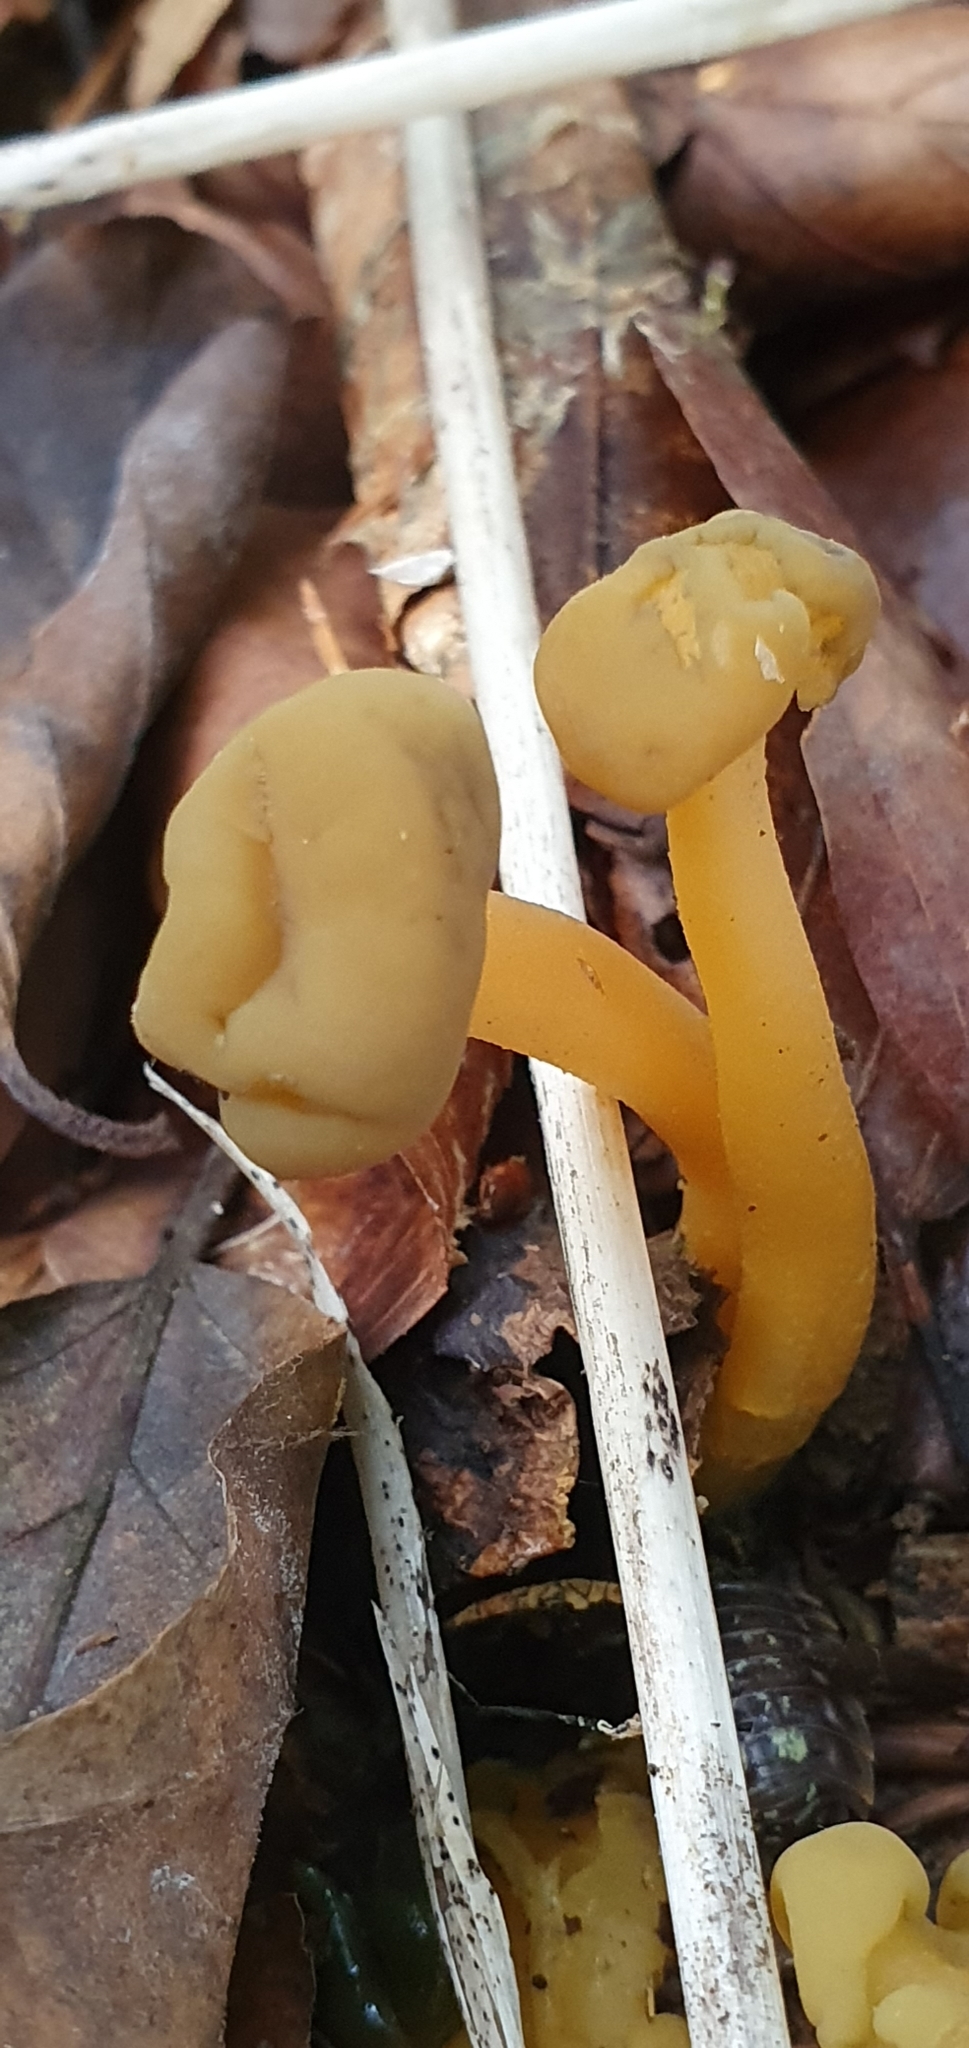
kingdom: Fungi
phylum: Ascomycota
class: Leotiomycetes
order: Leotiales
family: Leotiaceae
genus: Leotia
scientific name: Leotia lubrica
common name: Jellybaby
